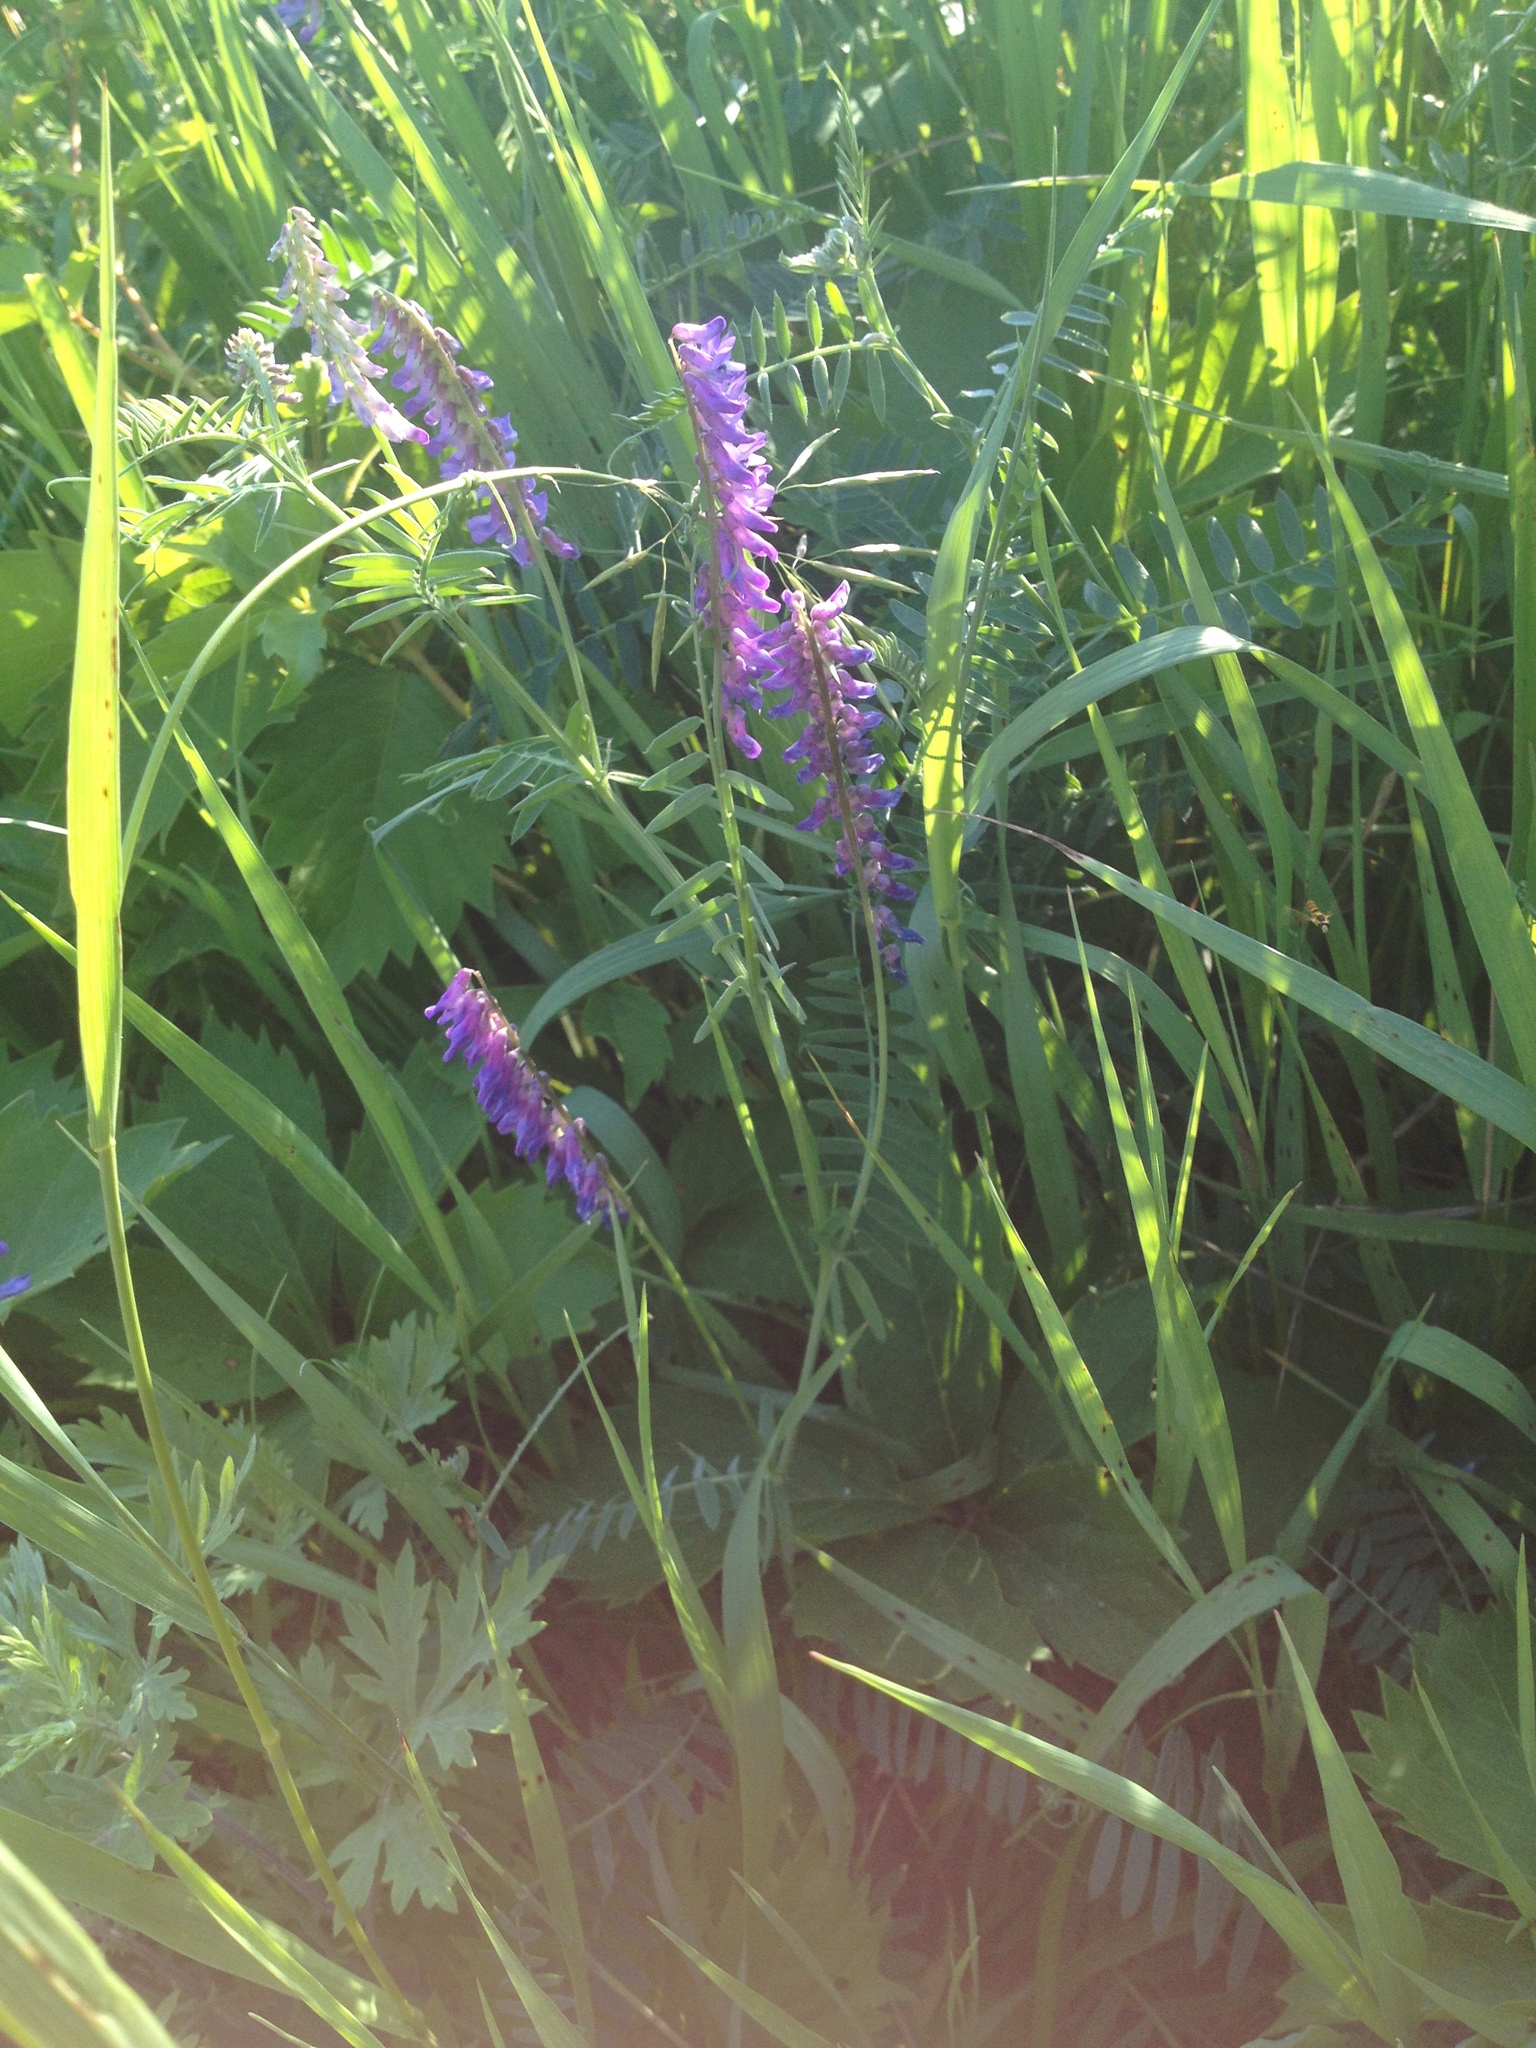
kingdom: Plantae
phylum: Tracheophyta
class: Magnoliopsida
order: Fabales
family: Fabaceae
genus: Vicia
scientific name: Vicia cracca
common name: Bird vetch
